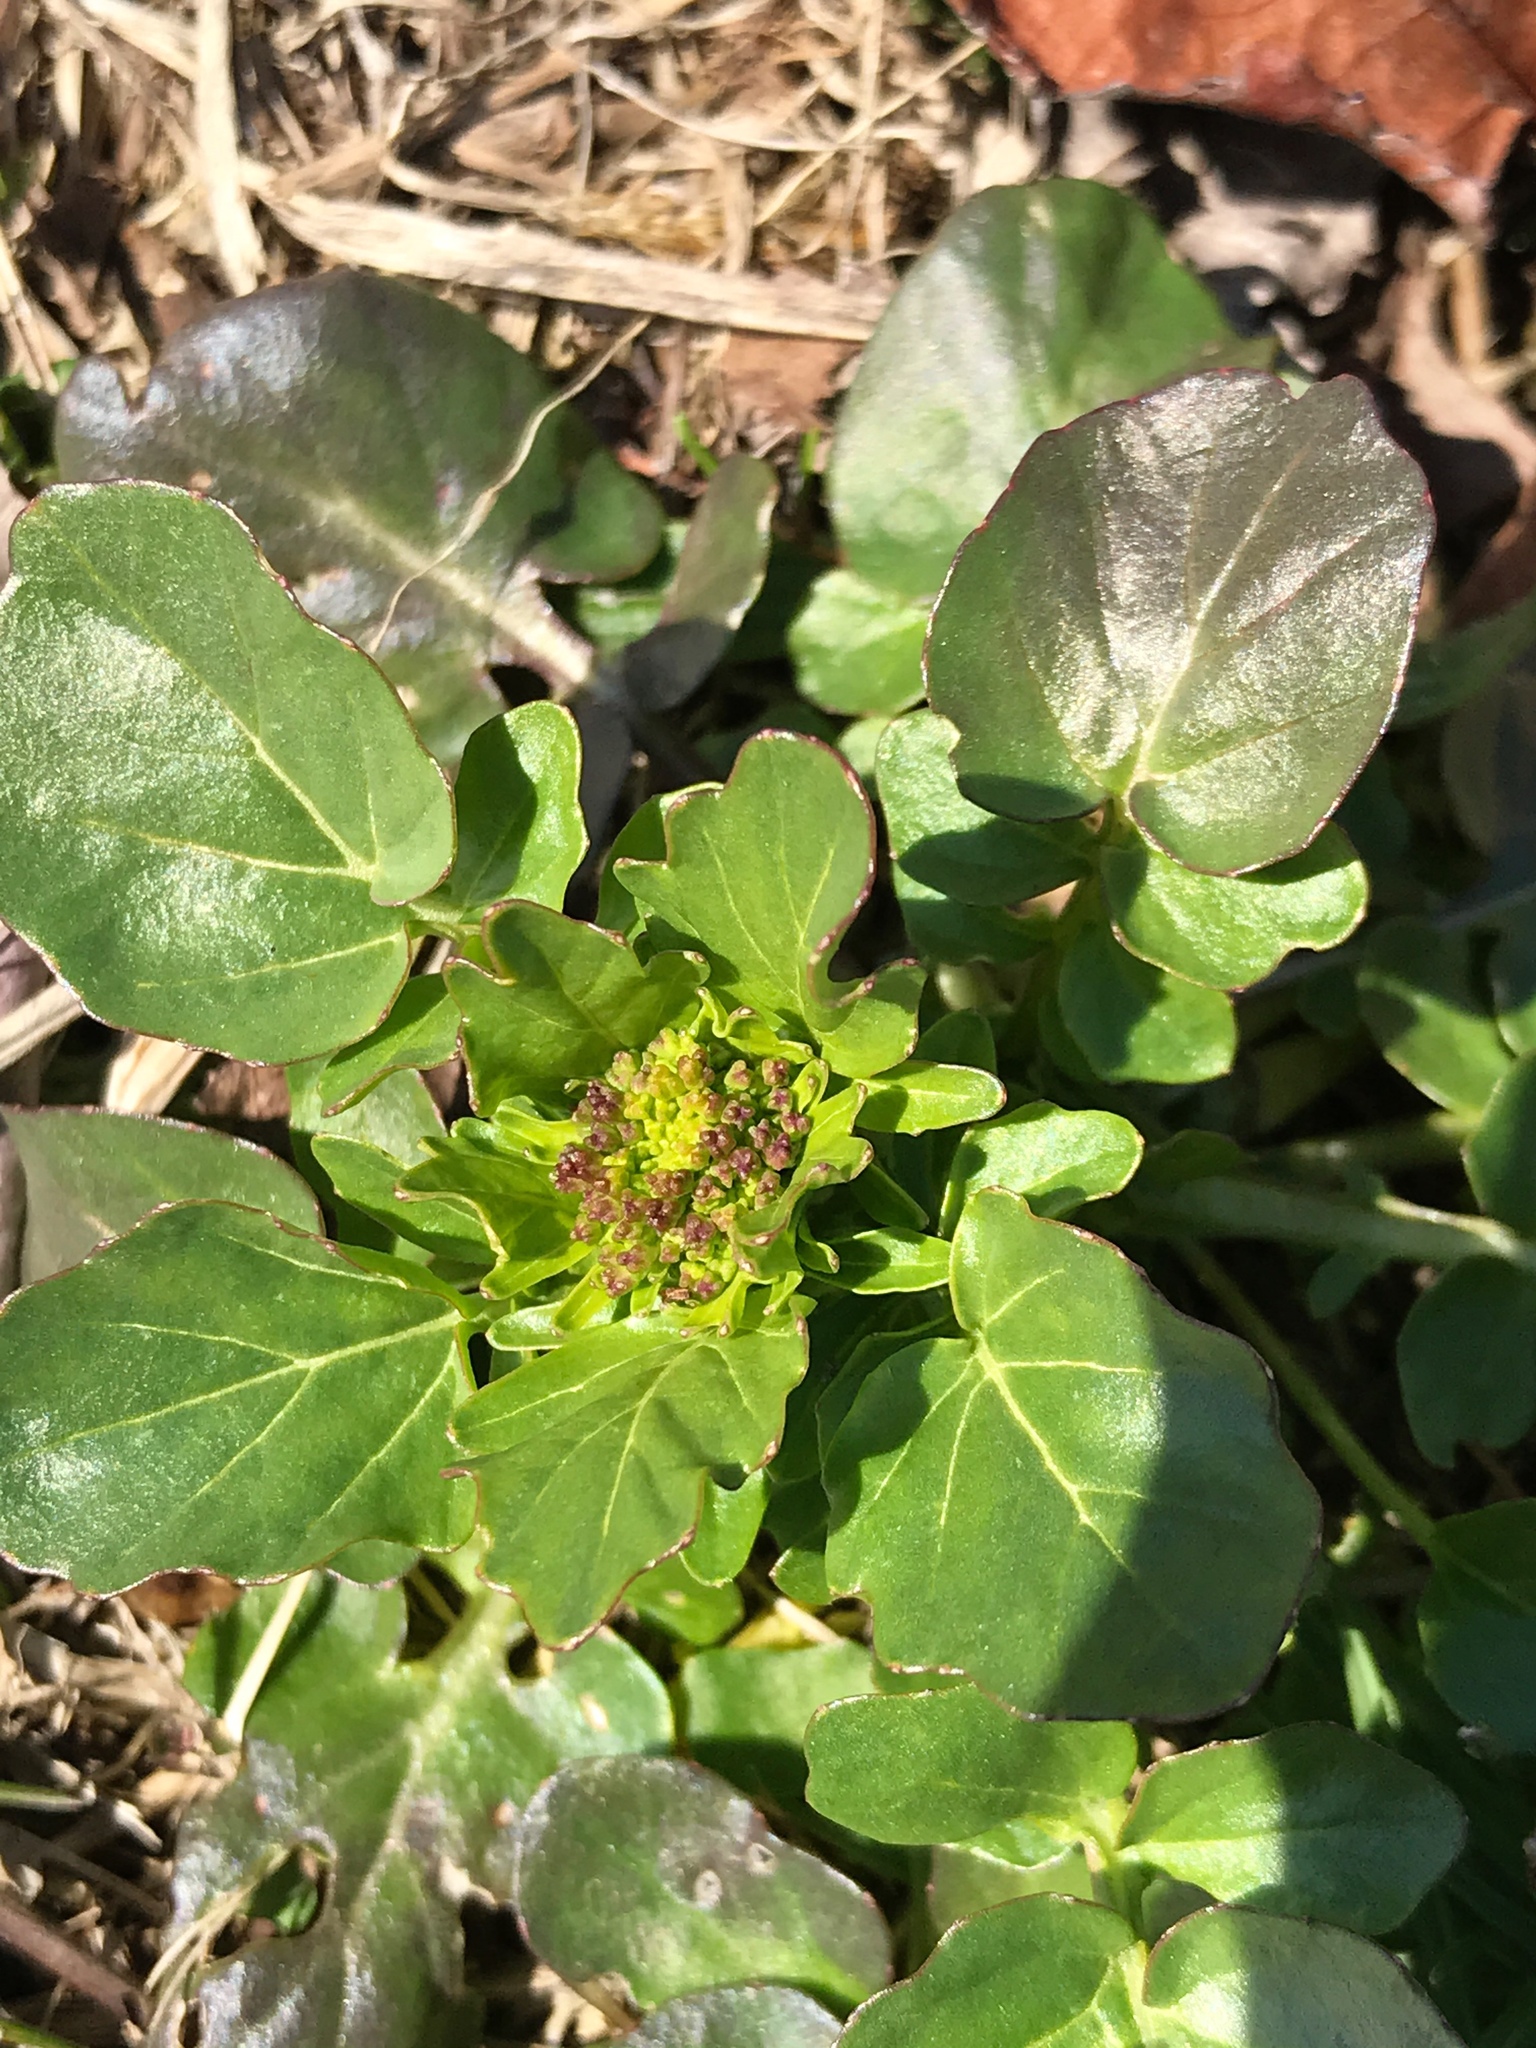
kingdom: Plantae
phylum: Tracheophyta
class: Magnoliopsida
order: Brassicales
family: Brassicaceae
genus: Barbarea
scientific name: Barbarea vulgaris
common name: Cressy-greens
